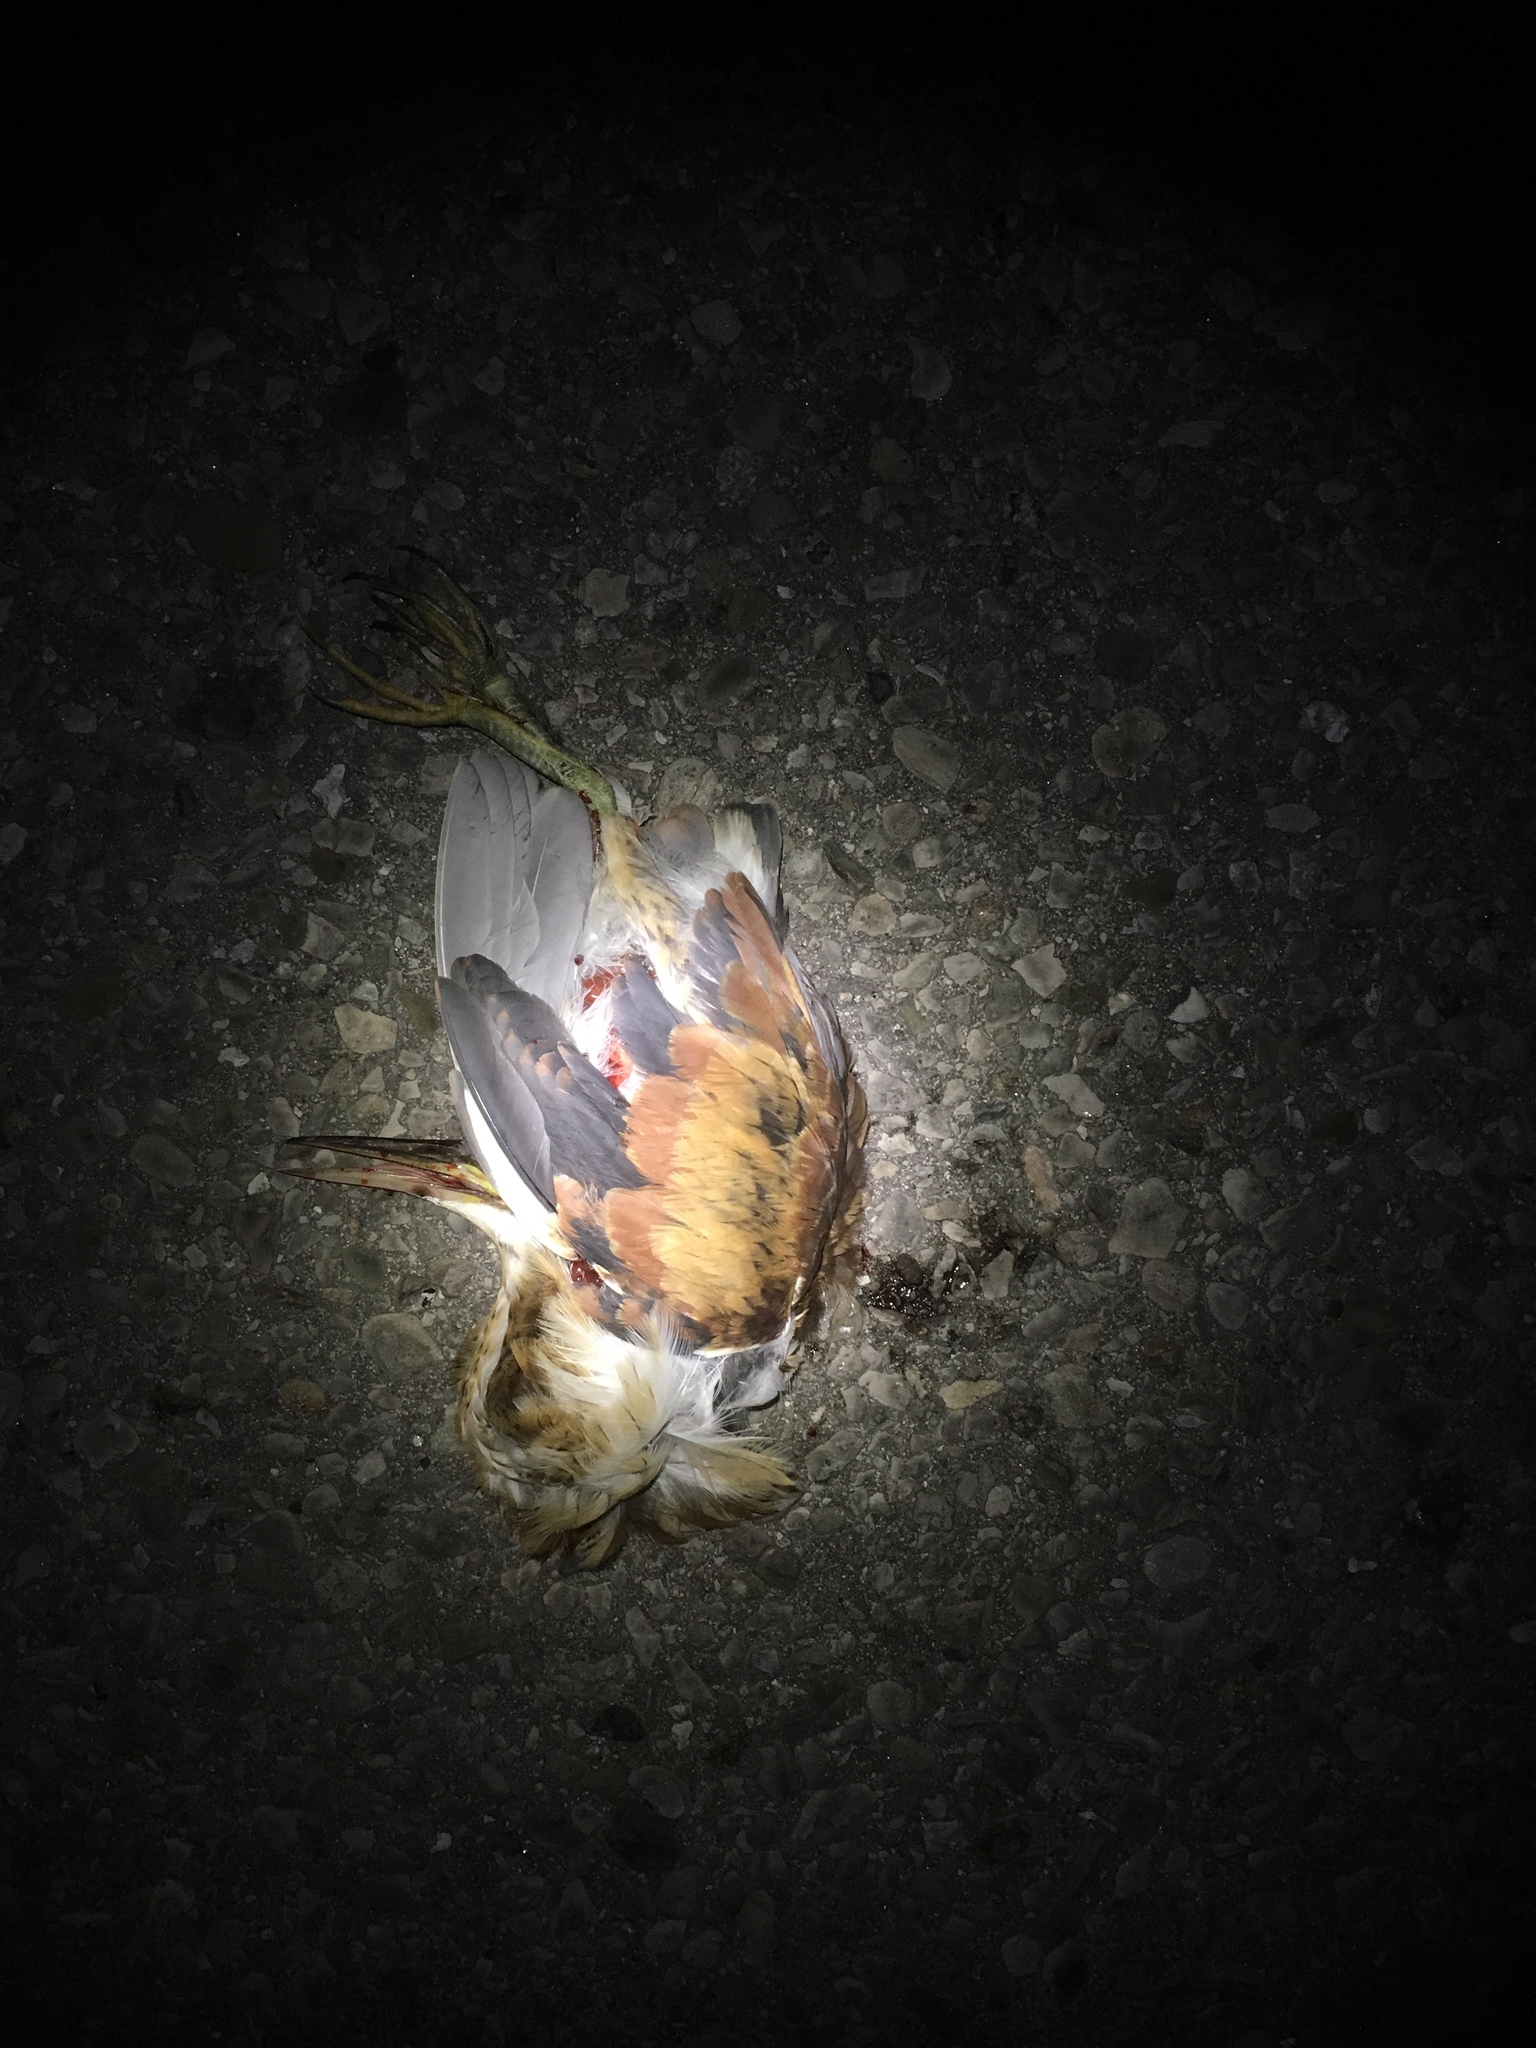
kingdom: Animalia
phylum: Chordata
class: Aves
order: Pelecaniformes
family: Ardeidae
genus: Ixobrychus
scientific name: Ixobrychus exilis
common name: Least bittern
